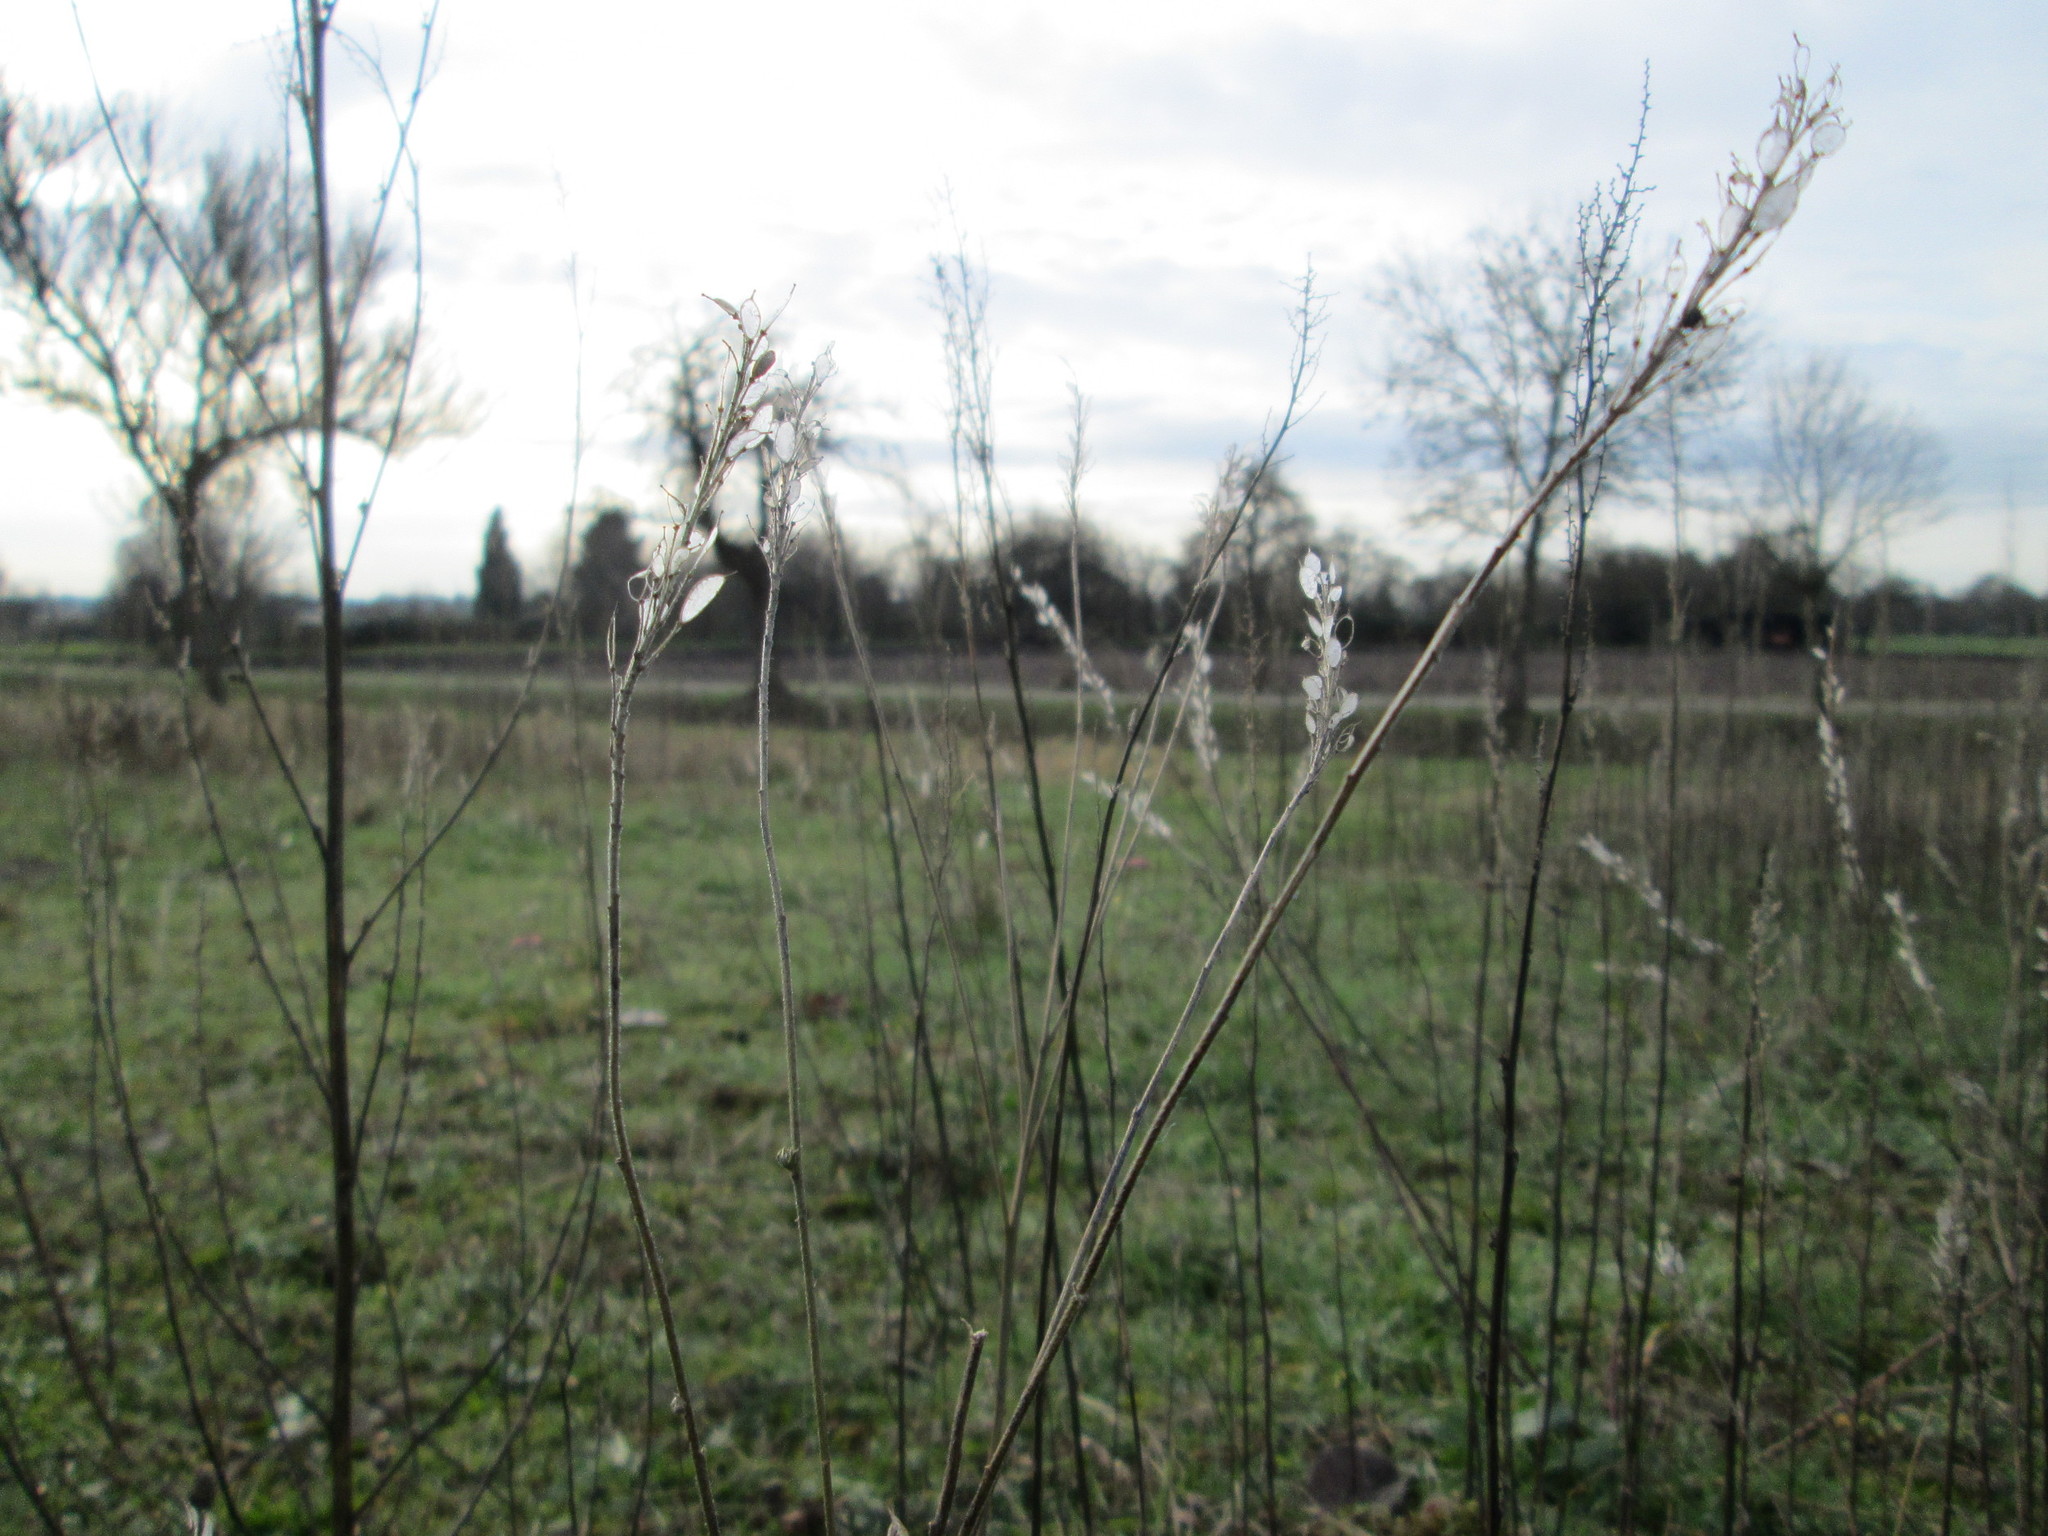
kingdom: Plantae
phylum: Tracheophyta
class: Magnoliopsida
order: Brassicales
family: Brassicaceae
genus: Berteroa
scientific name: Berteroa incana
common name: Hoary alison
